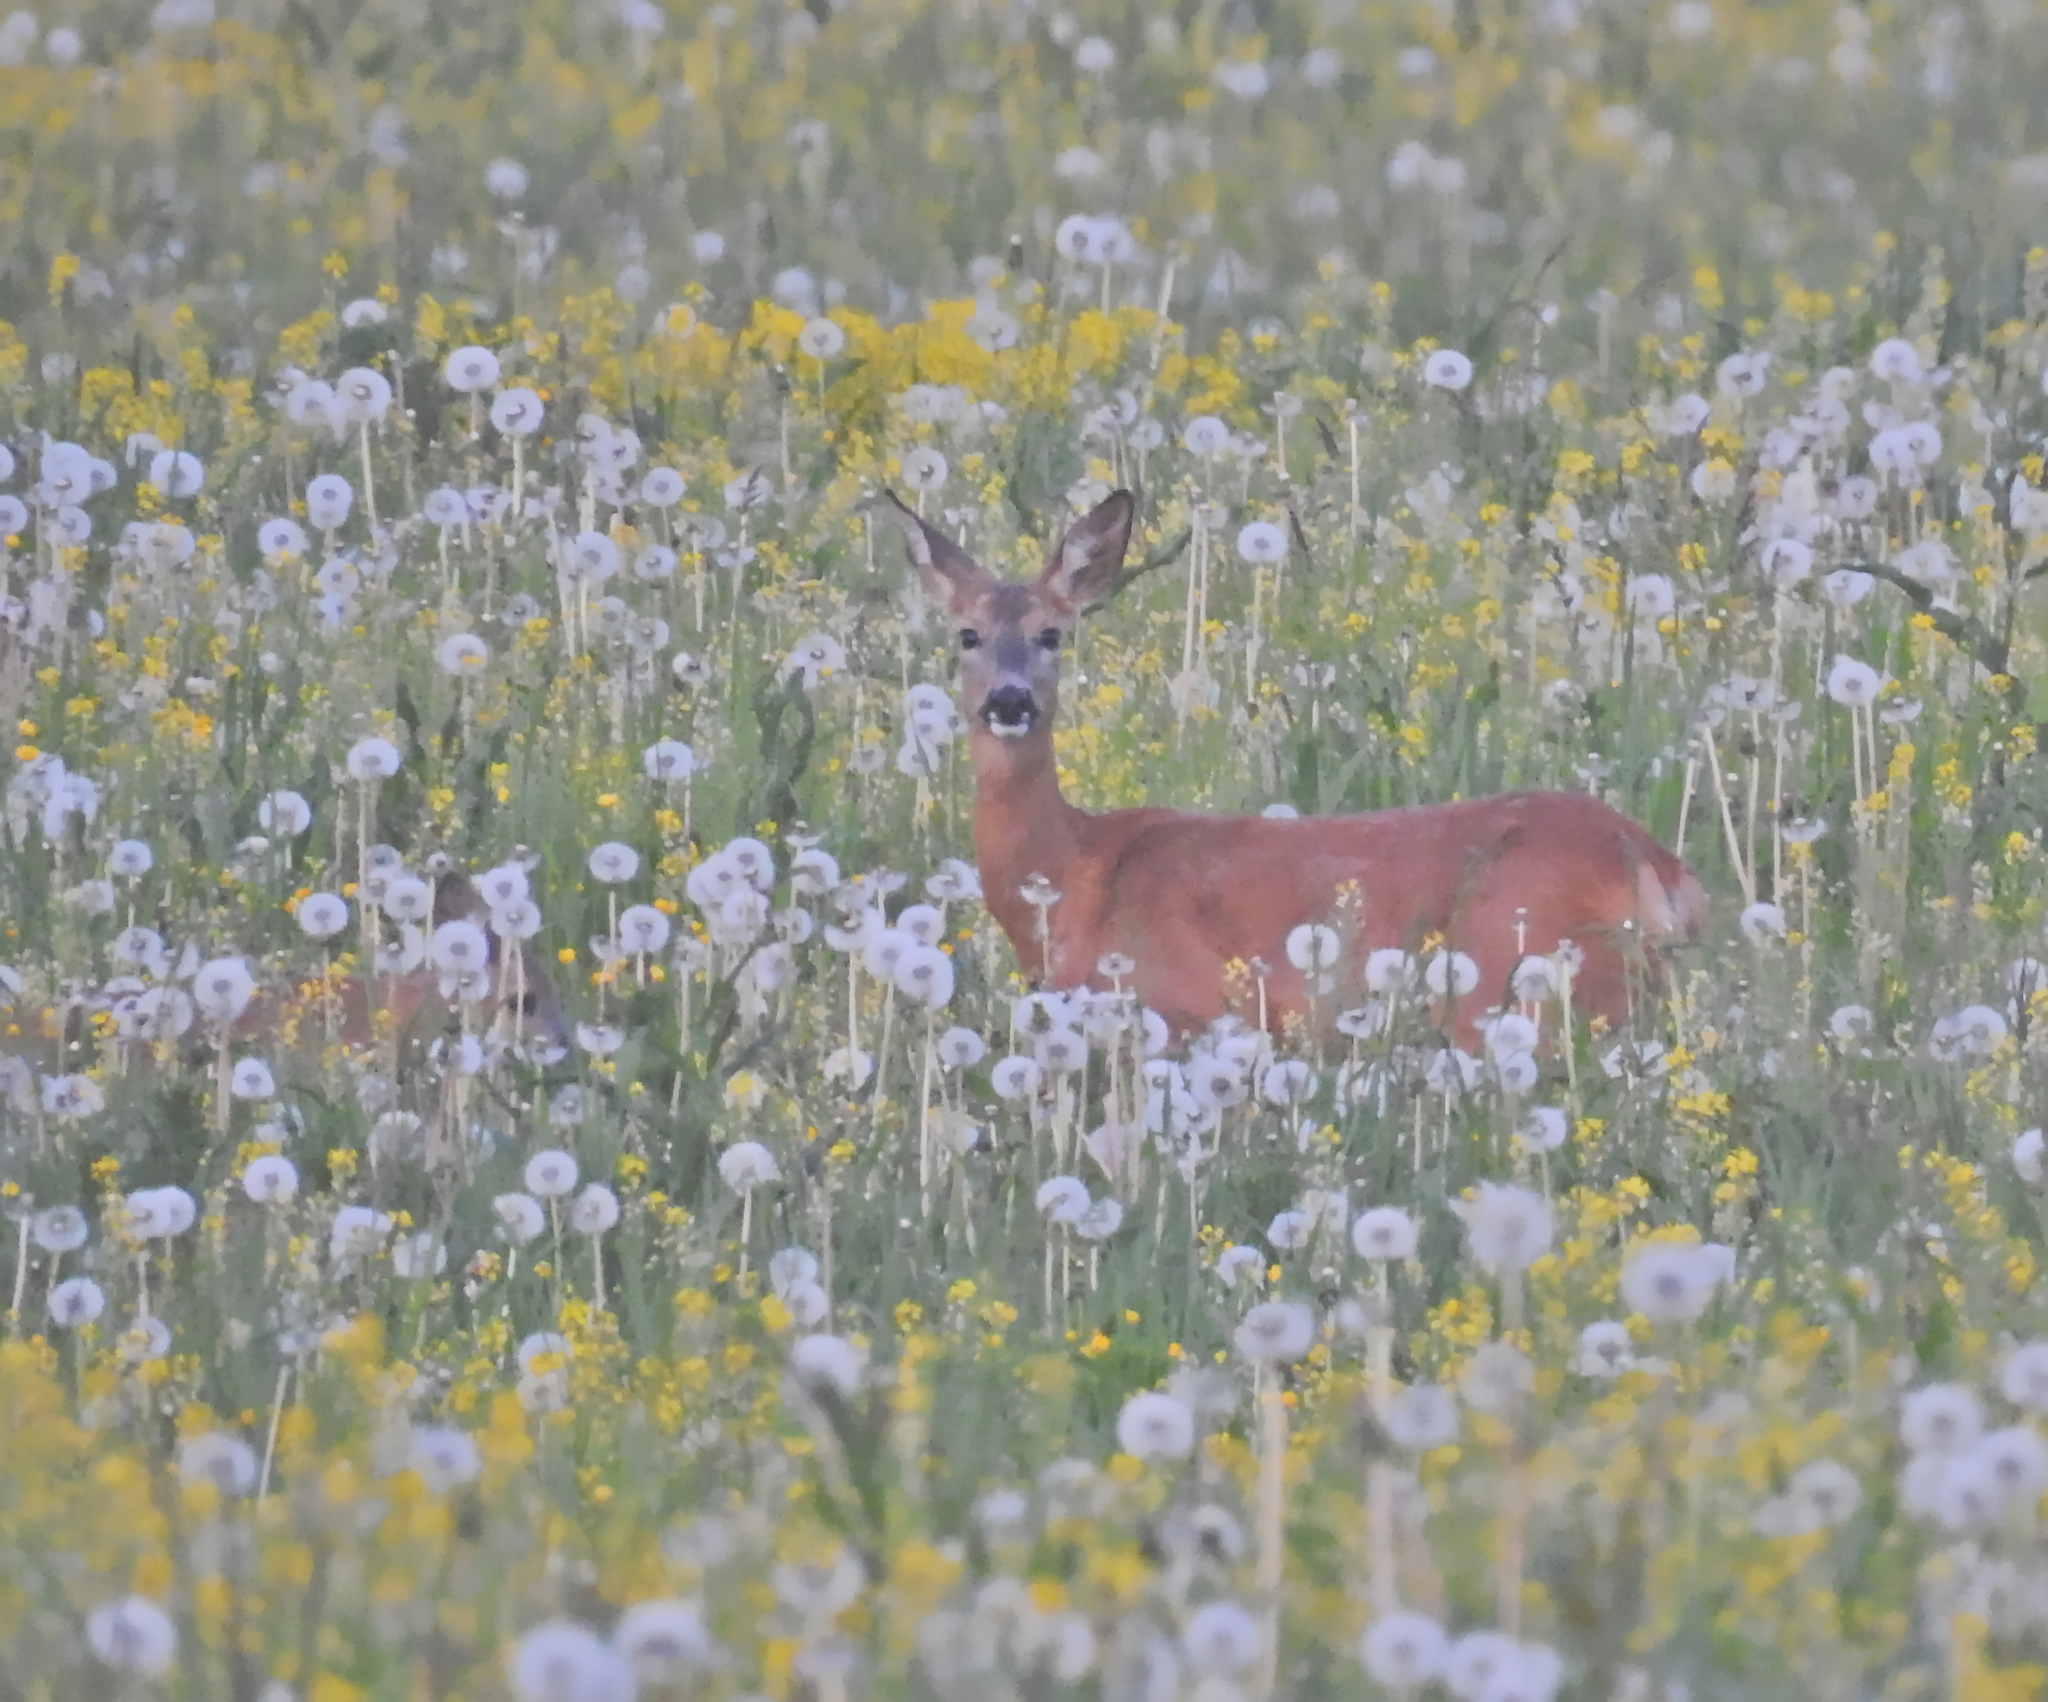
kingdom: Animalia
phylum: Chordata
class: Mammalia
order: Artiodactyla
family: Cervidae
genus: Capreolus
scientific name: Capreolus capreolus
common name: Western roe deer
